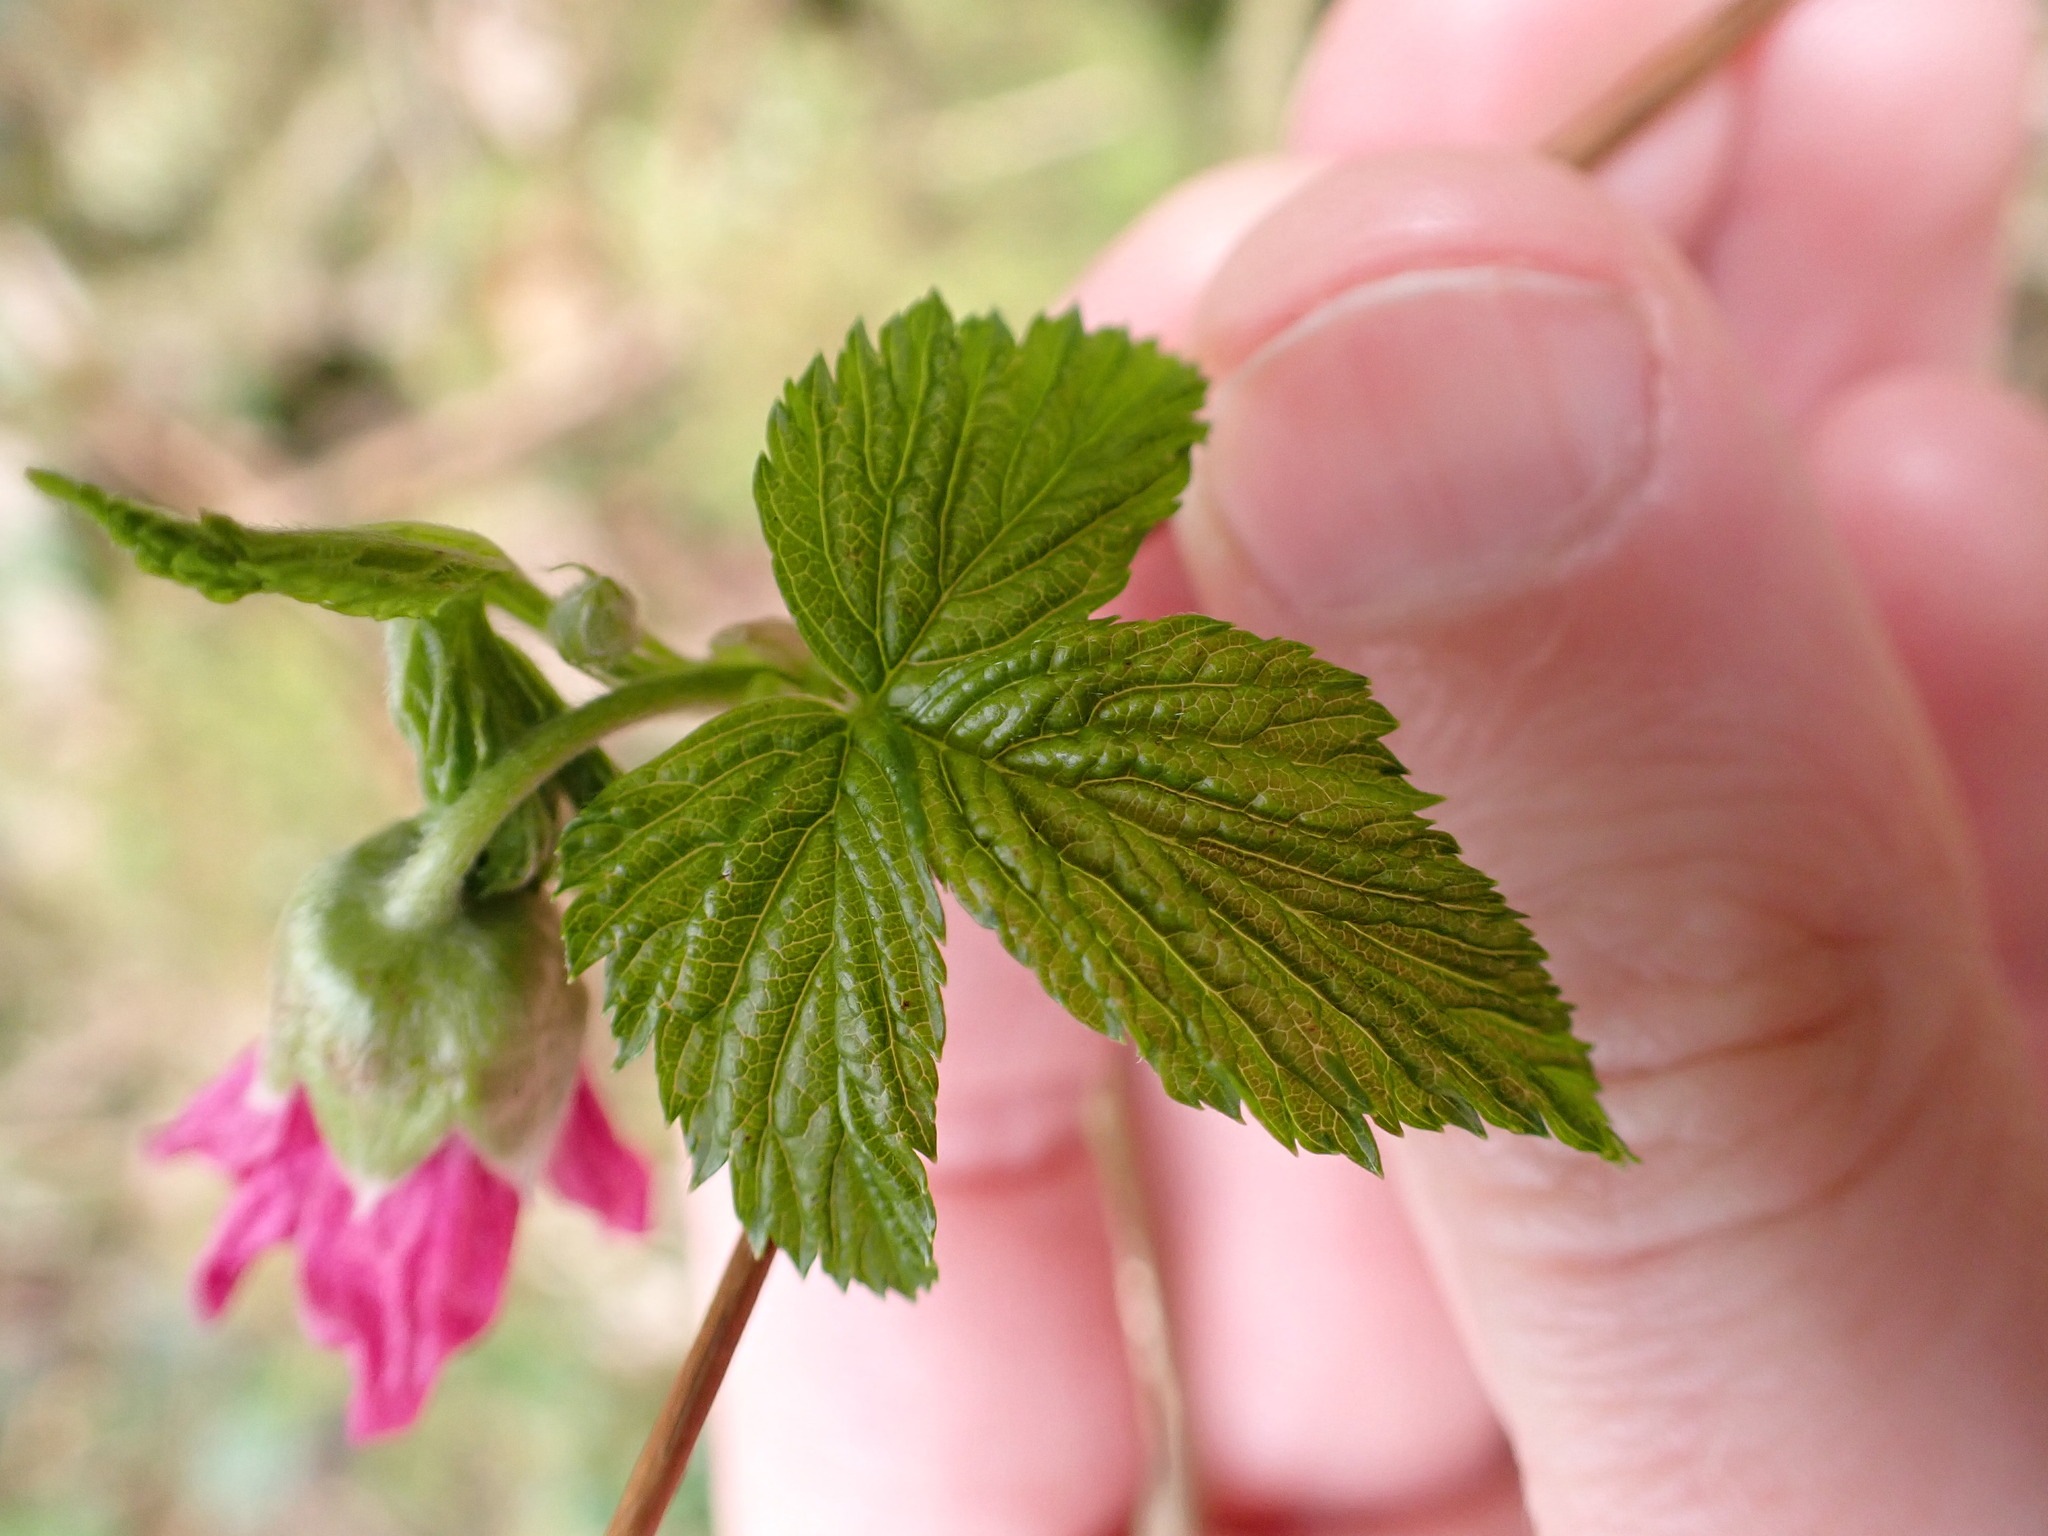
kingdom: Plantae
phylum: Tracheophyta
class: Magnoliopsida
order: Rosales
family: Rosaceae
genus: Rubus
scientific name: Rubus spectabilis
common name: Salmonberry
